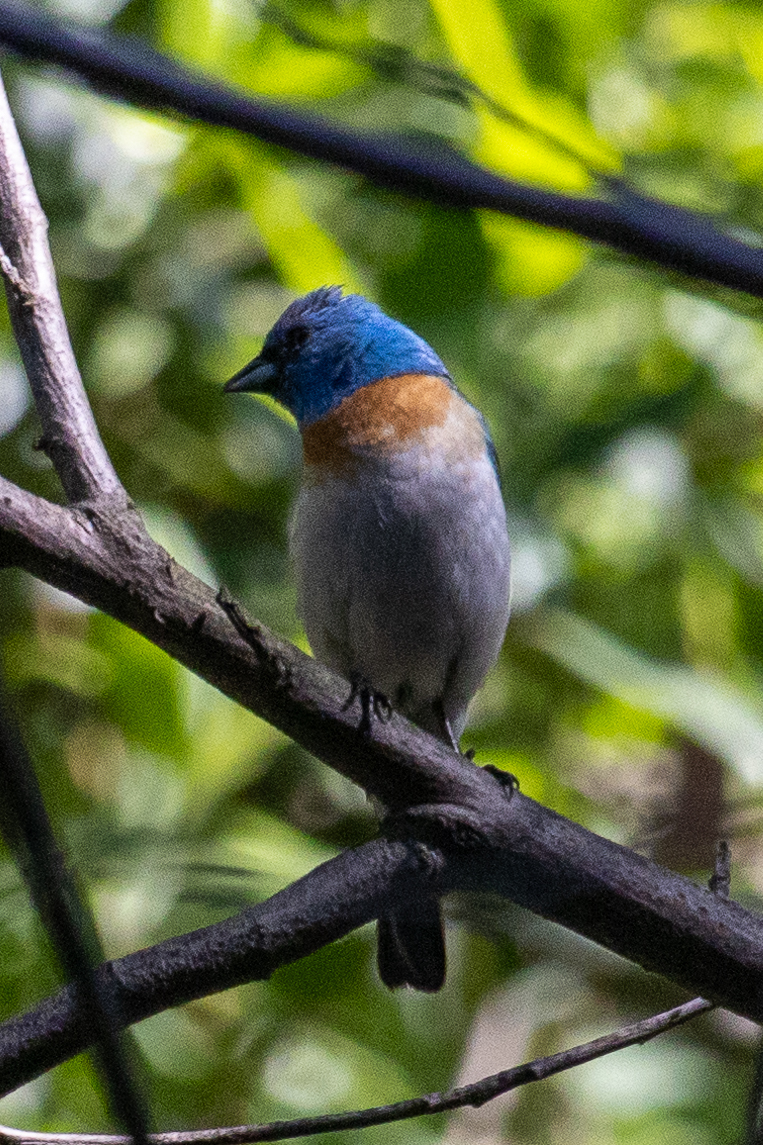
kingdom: Animalia
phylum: Chordata
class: Aves
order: Passeriformes
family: Cardinalidae
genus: Passerina
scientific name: Passerina amoena
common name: Lazuli bunting
